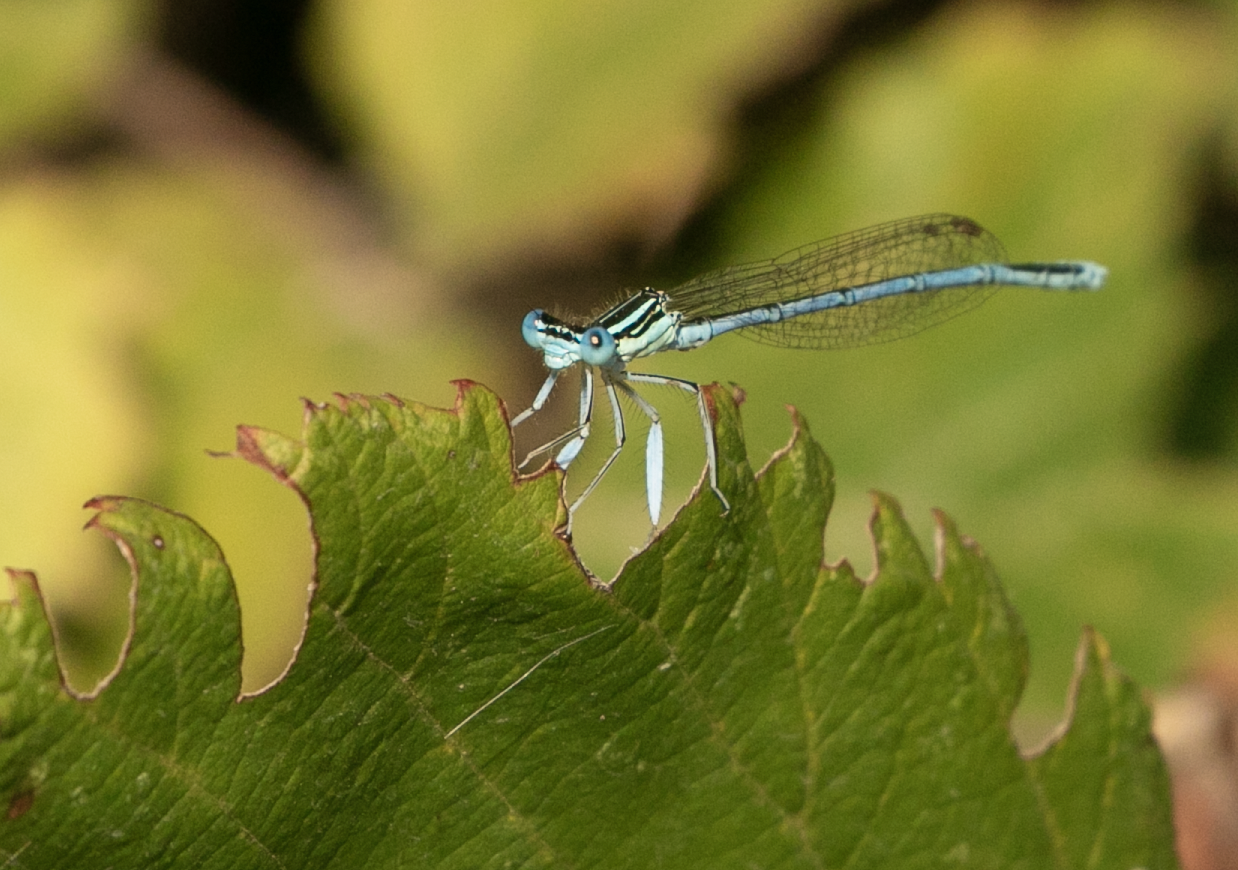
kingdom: Animalia
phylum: Arthropoda
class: Insecta
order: Odonata
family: Platycnemididae
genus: Platycnemis
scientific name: Platycnemis pennipes
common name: White-legged damselfly
